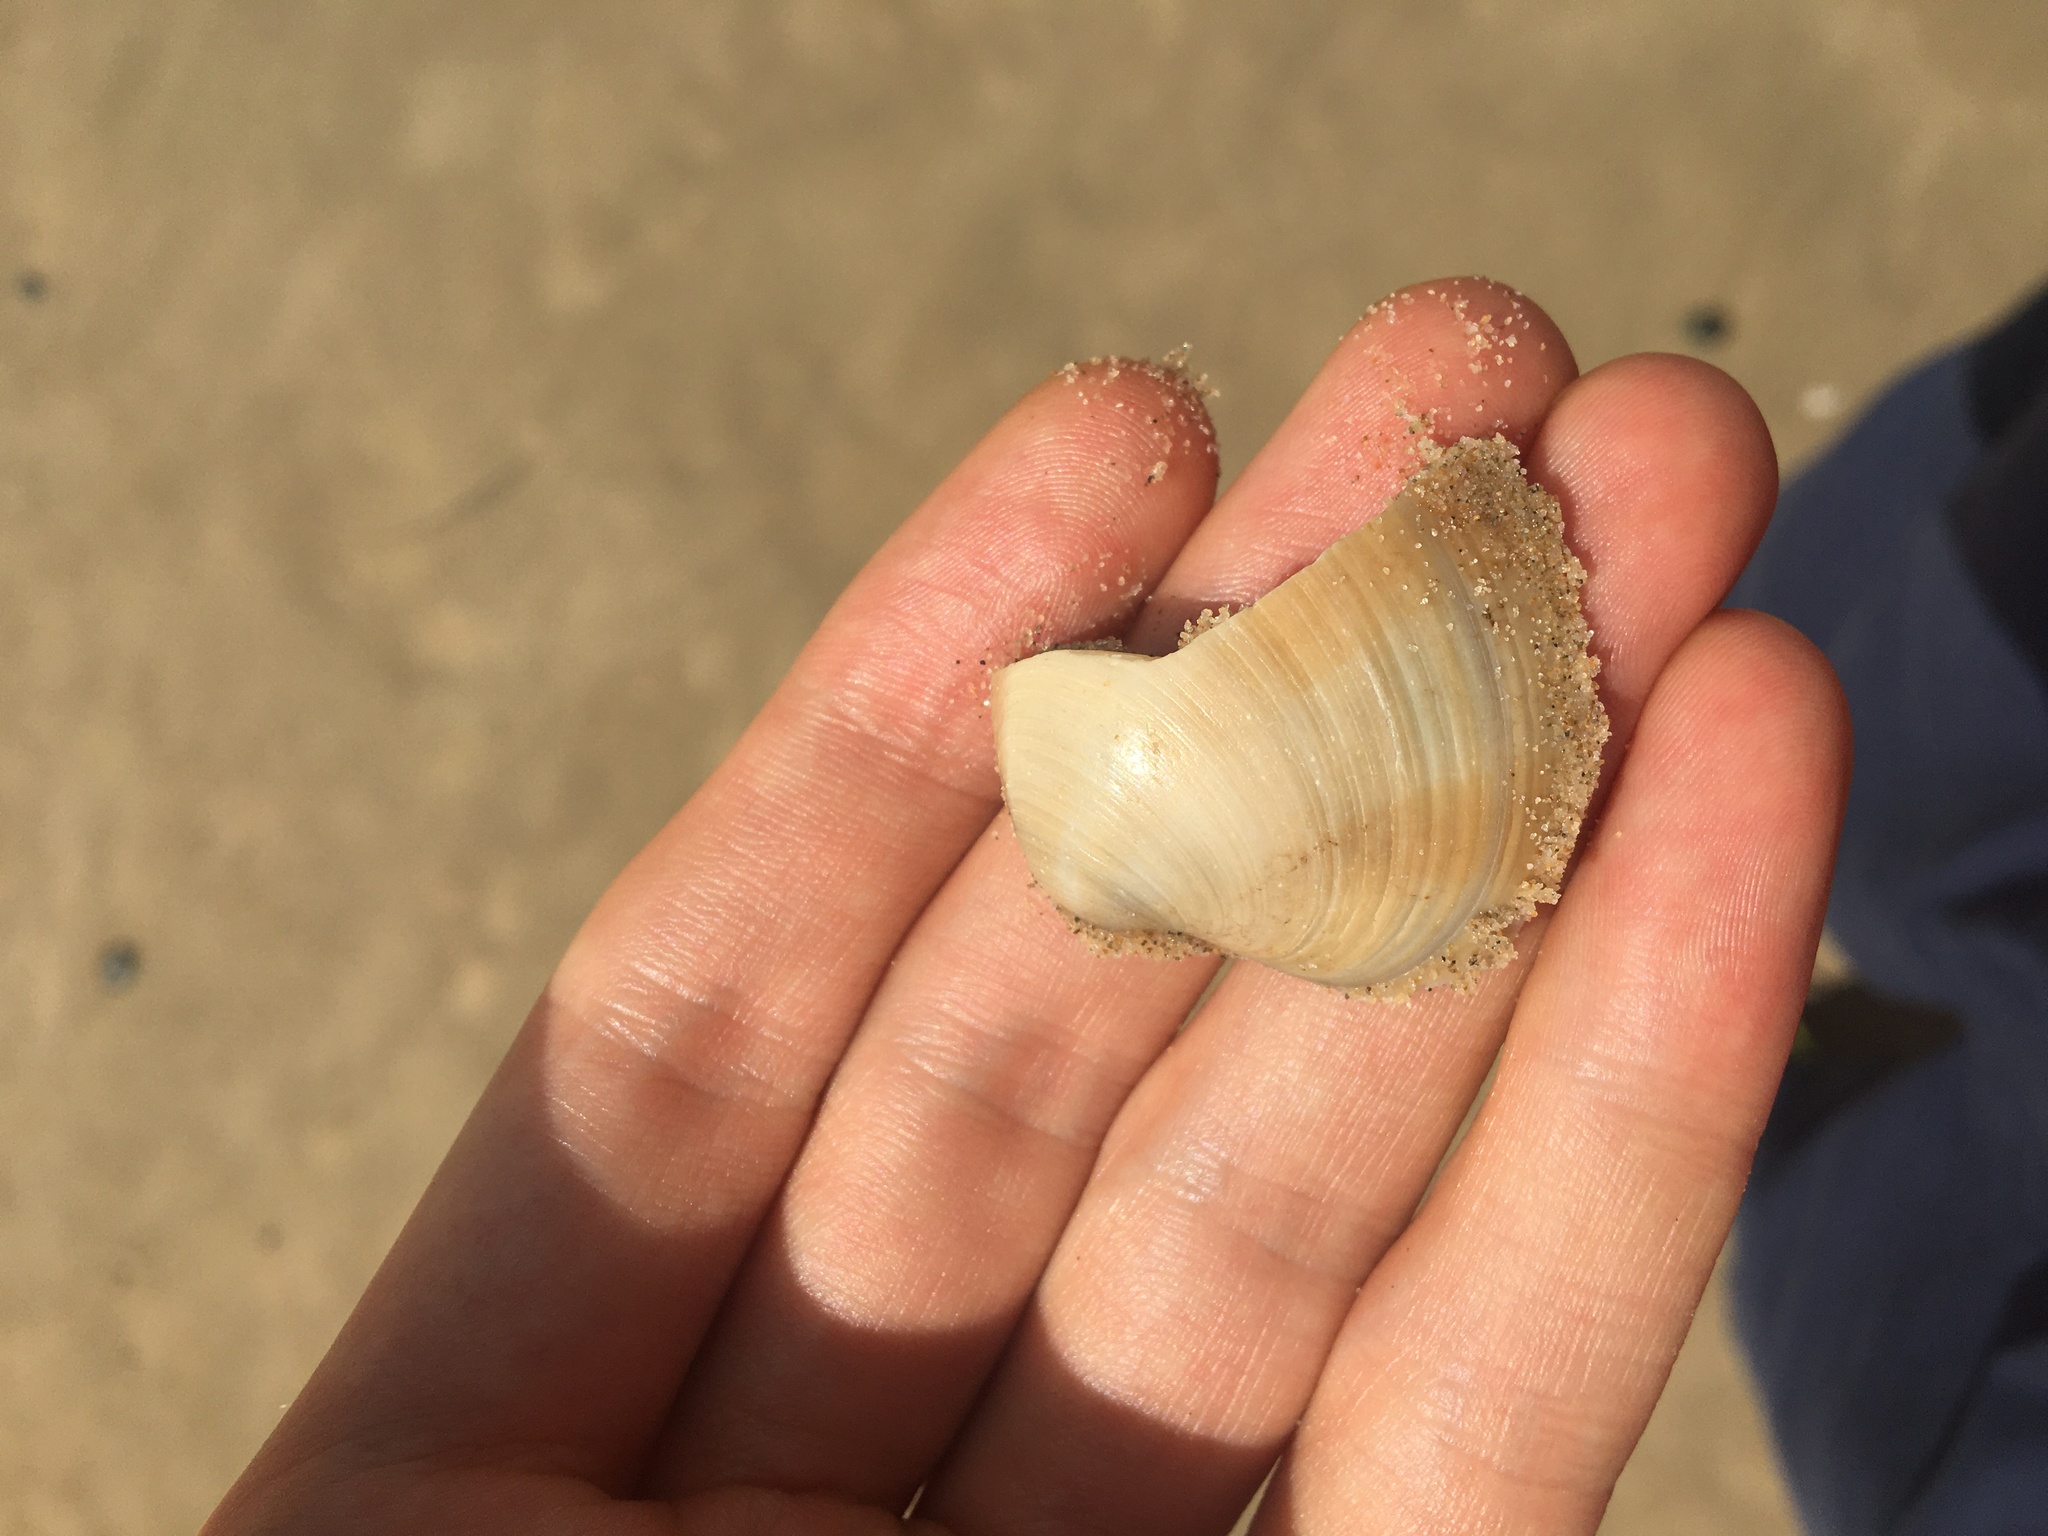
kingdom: Animalia
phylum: Mollusca
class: Bivalvia
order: Venerida
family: Veneridae
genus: Bassina
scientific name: Bassina pachyphylla
